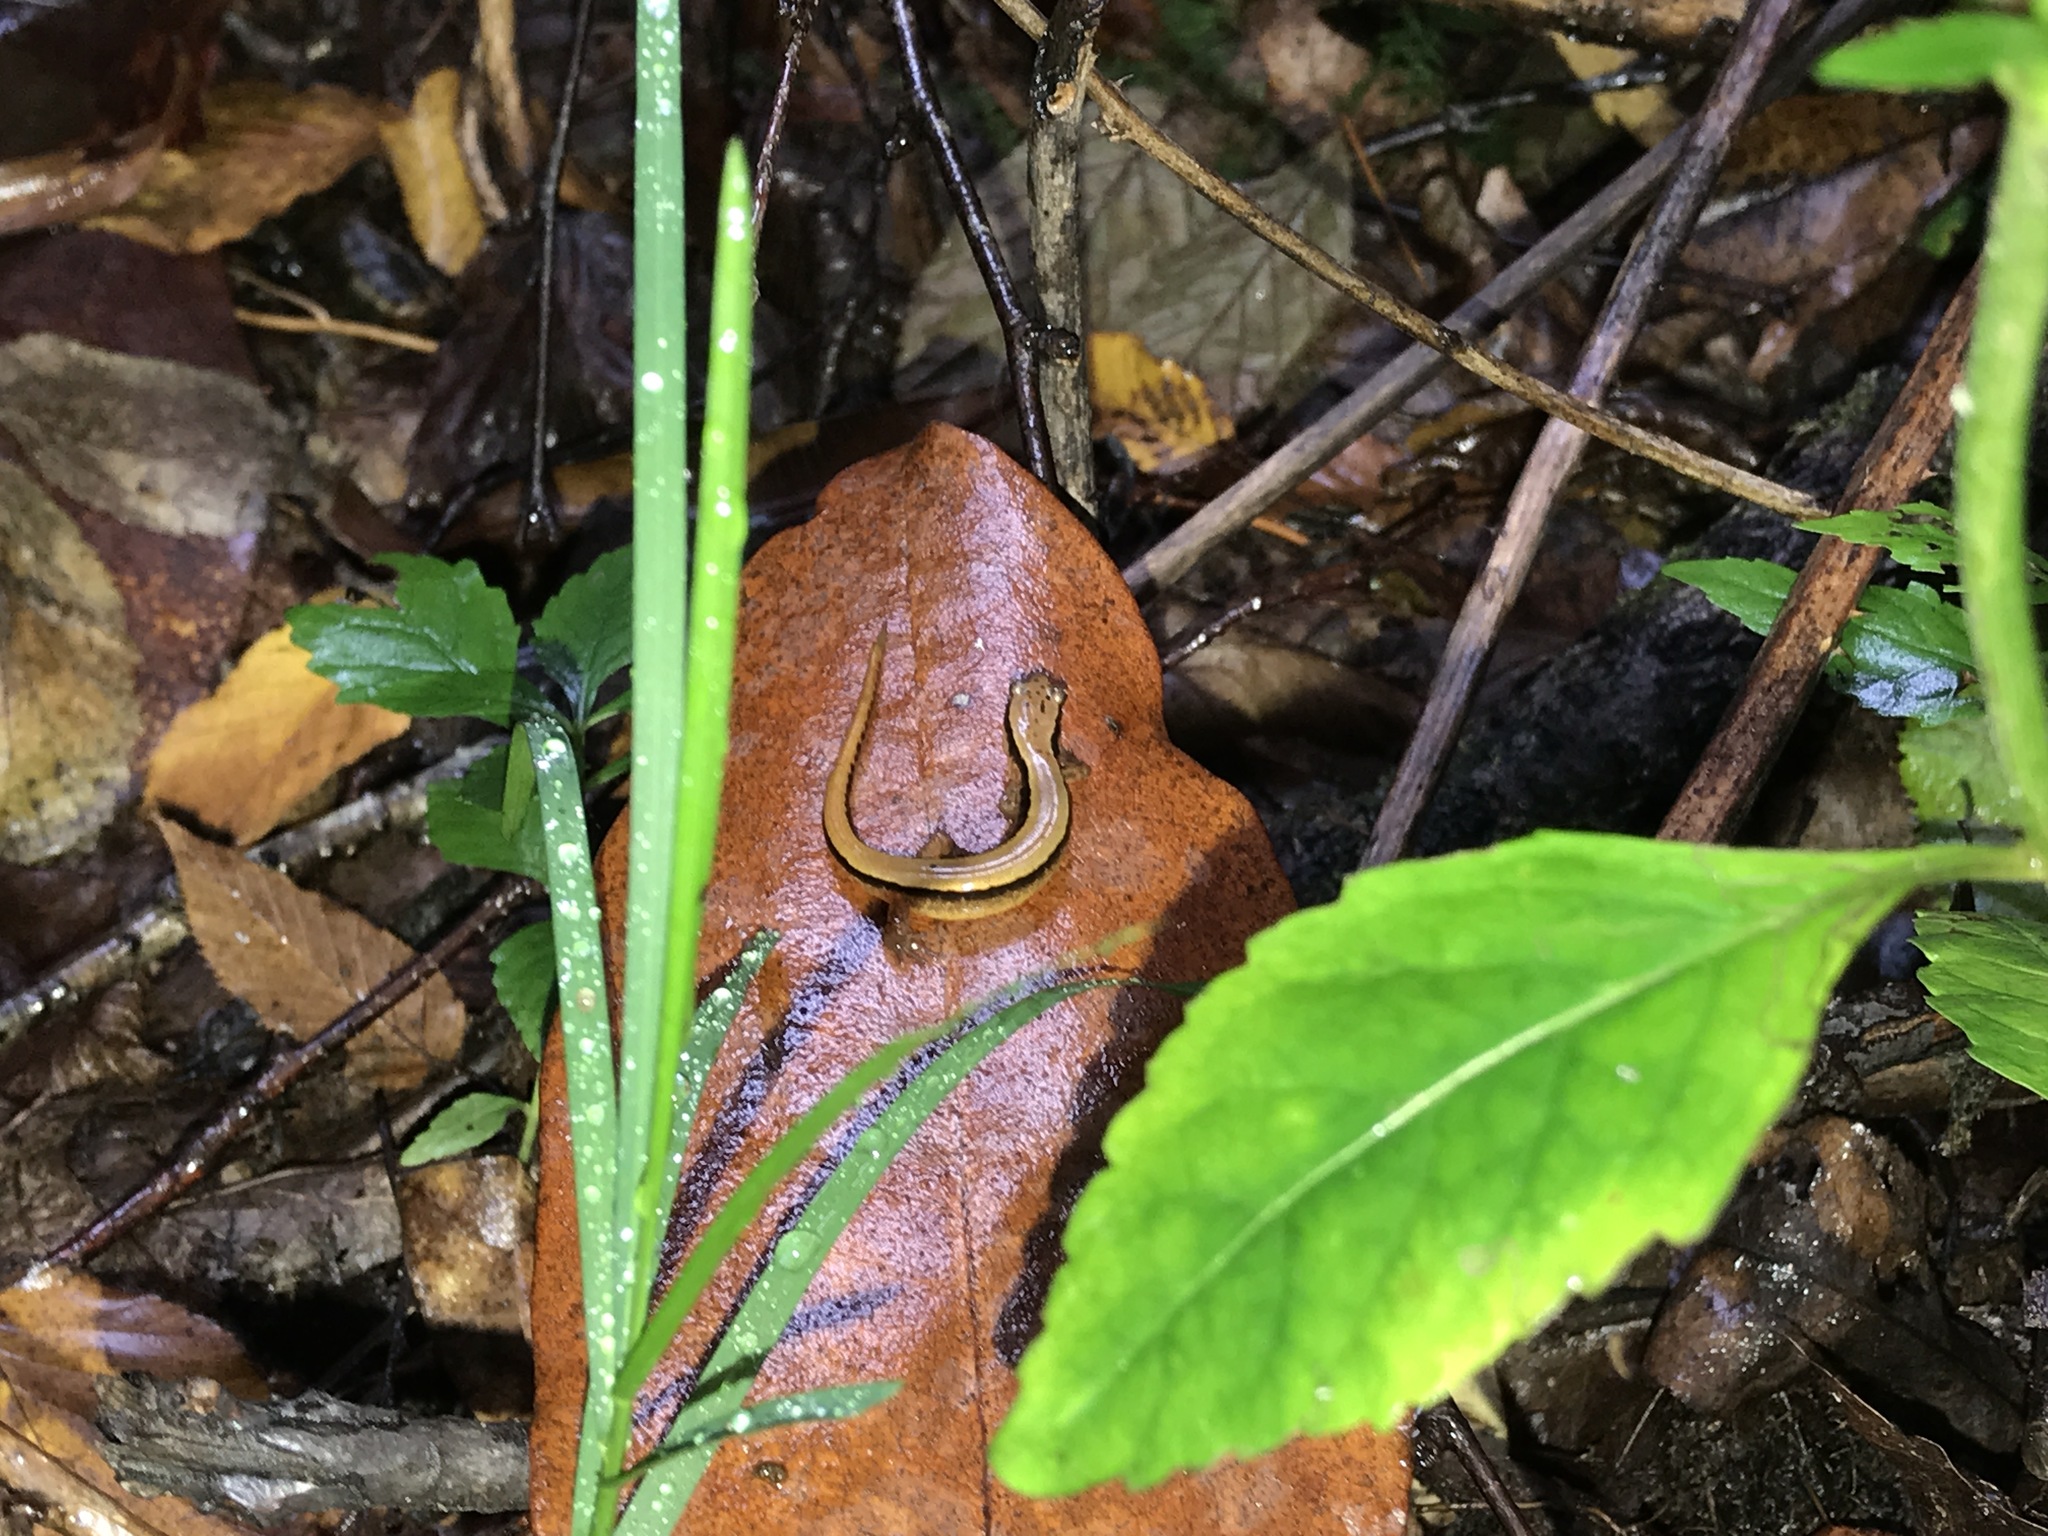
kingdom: Animalia
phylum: Chordata
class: Amphibia
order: Caudata
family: Plethodontidae
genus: Eurycea
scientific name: Eurycea wilderae
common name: Blue ridge two-lined salamander
